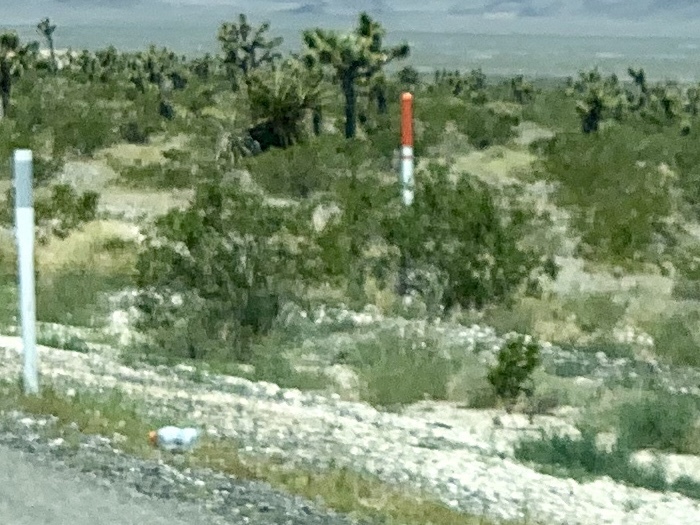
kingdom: Plantae
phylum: Tracheophyta
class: Magnoliopsida
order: Zygophyllales
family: Zygophyllaceae
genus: Larrea
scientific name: Larrea tridentata
